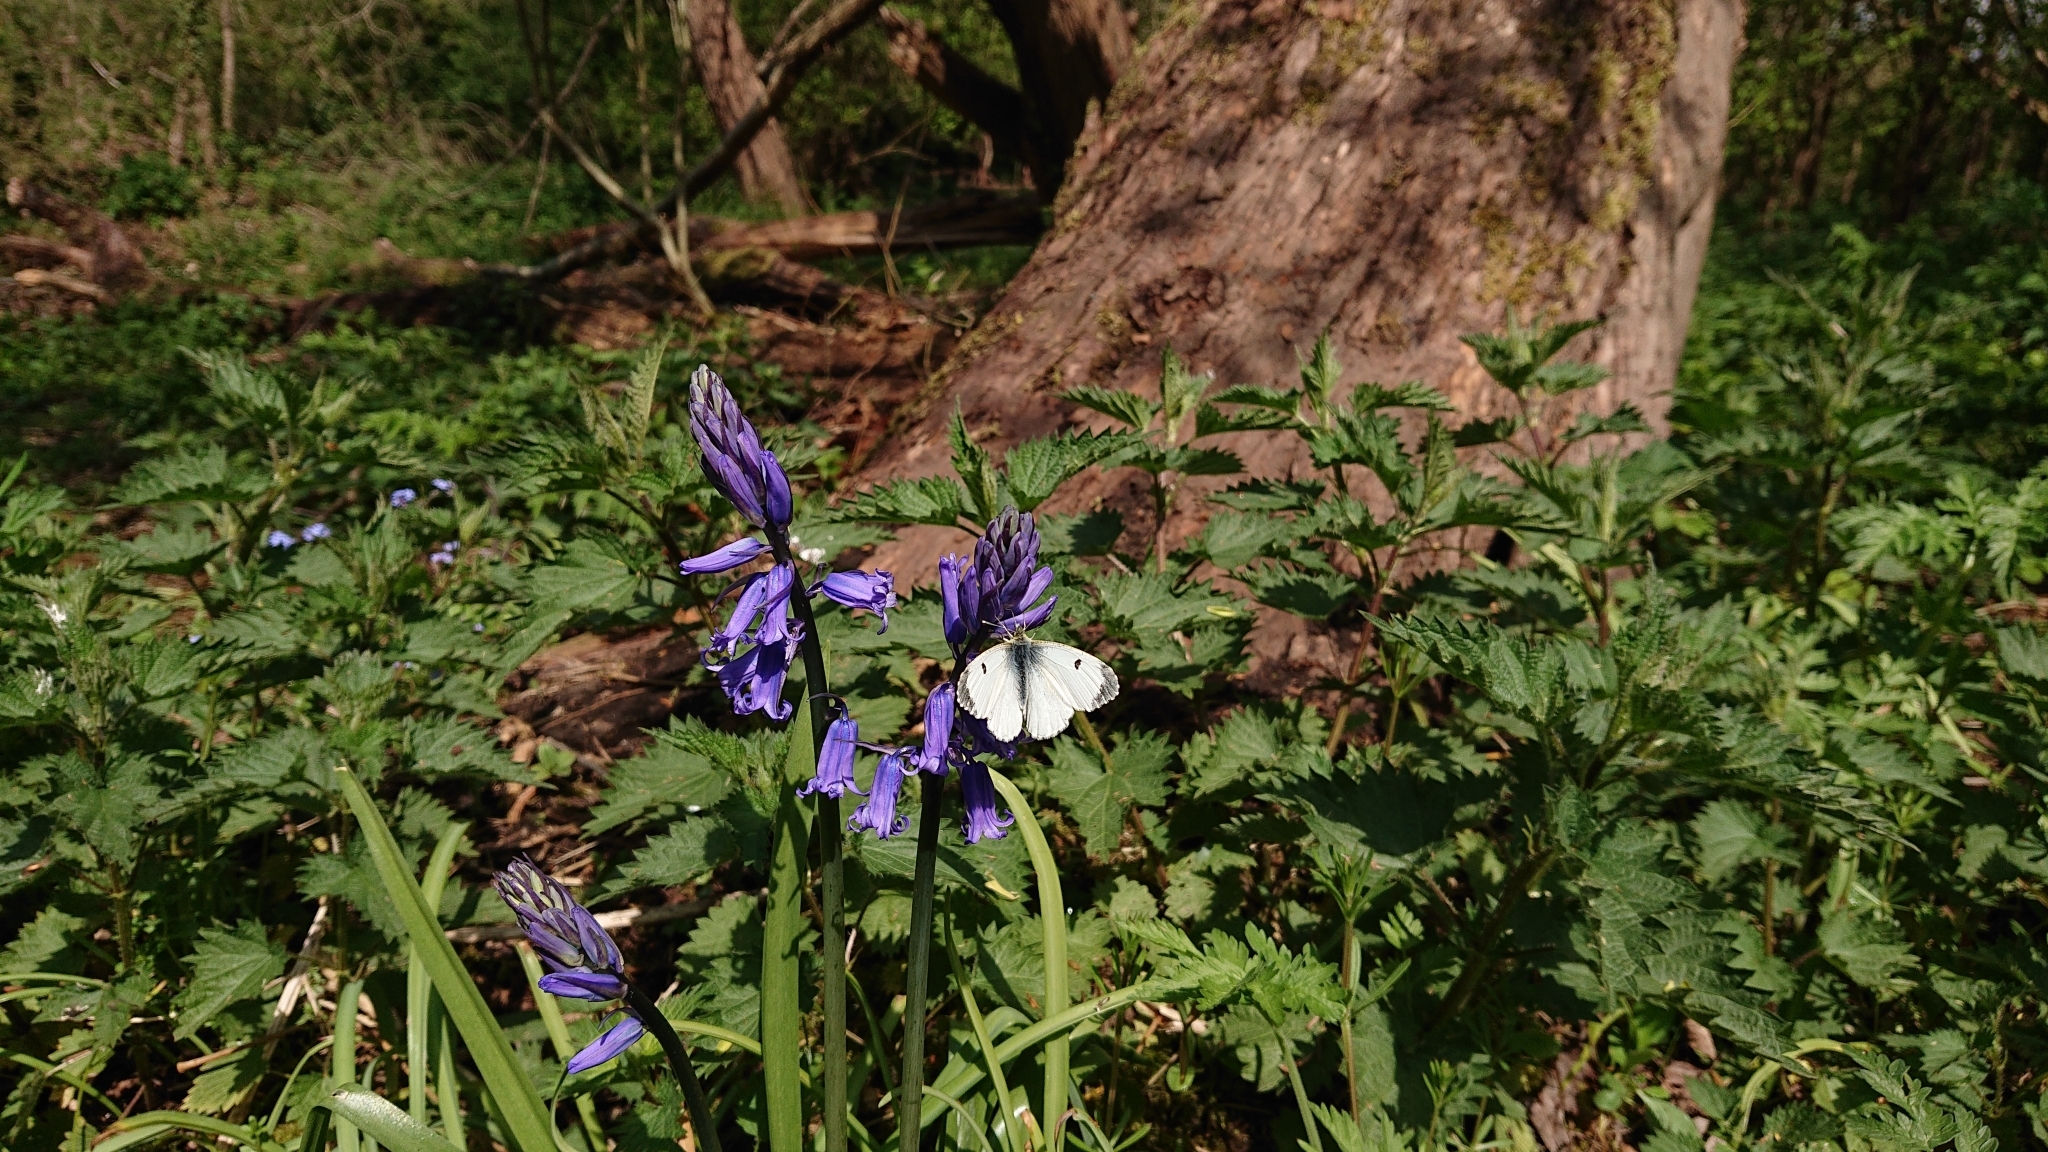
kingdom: Animalia
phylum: Arthropoda
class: Insecta
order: Lepidoptera
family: Pieridae
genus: Anthocharis
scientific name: Anthocharis cardamines
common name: Orange-tip
